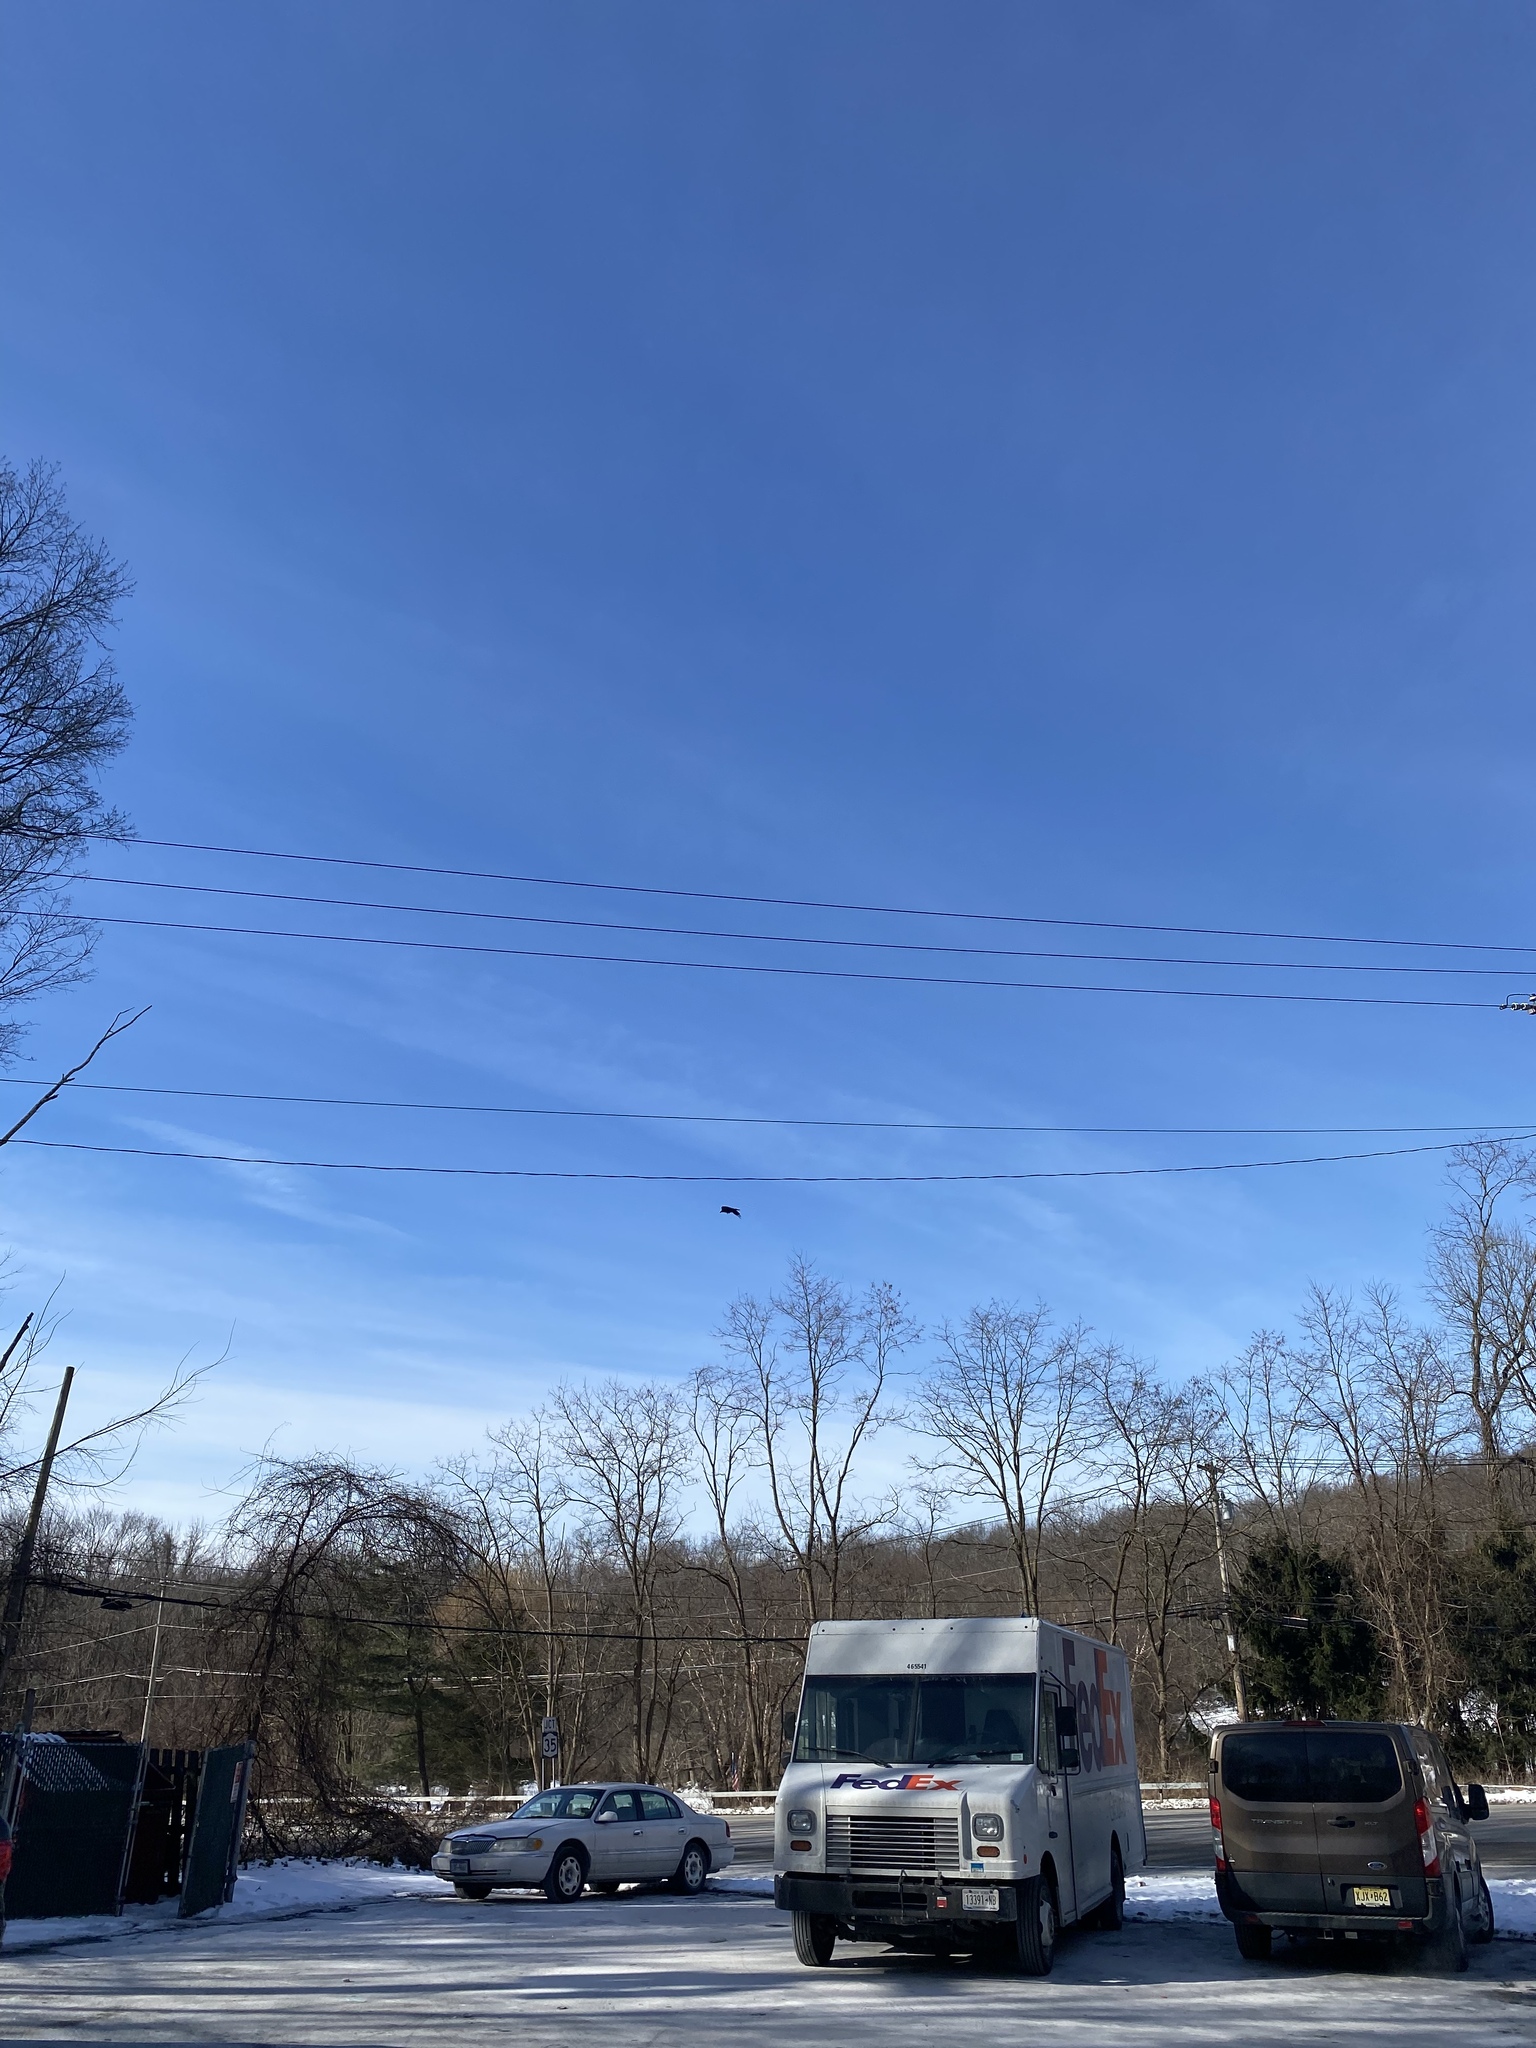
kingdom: Animalia
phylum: Chordata
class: Aves
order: Passeriformes
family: Corvidae
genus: Corvus
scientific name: Corvus ossifragus
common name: Fish crow
